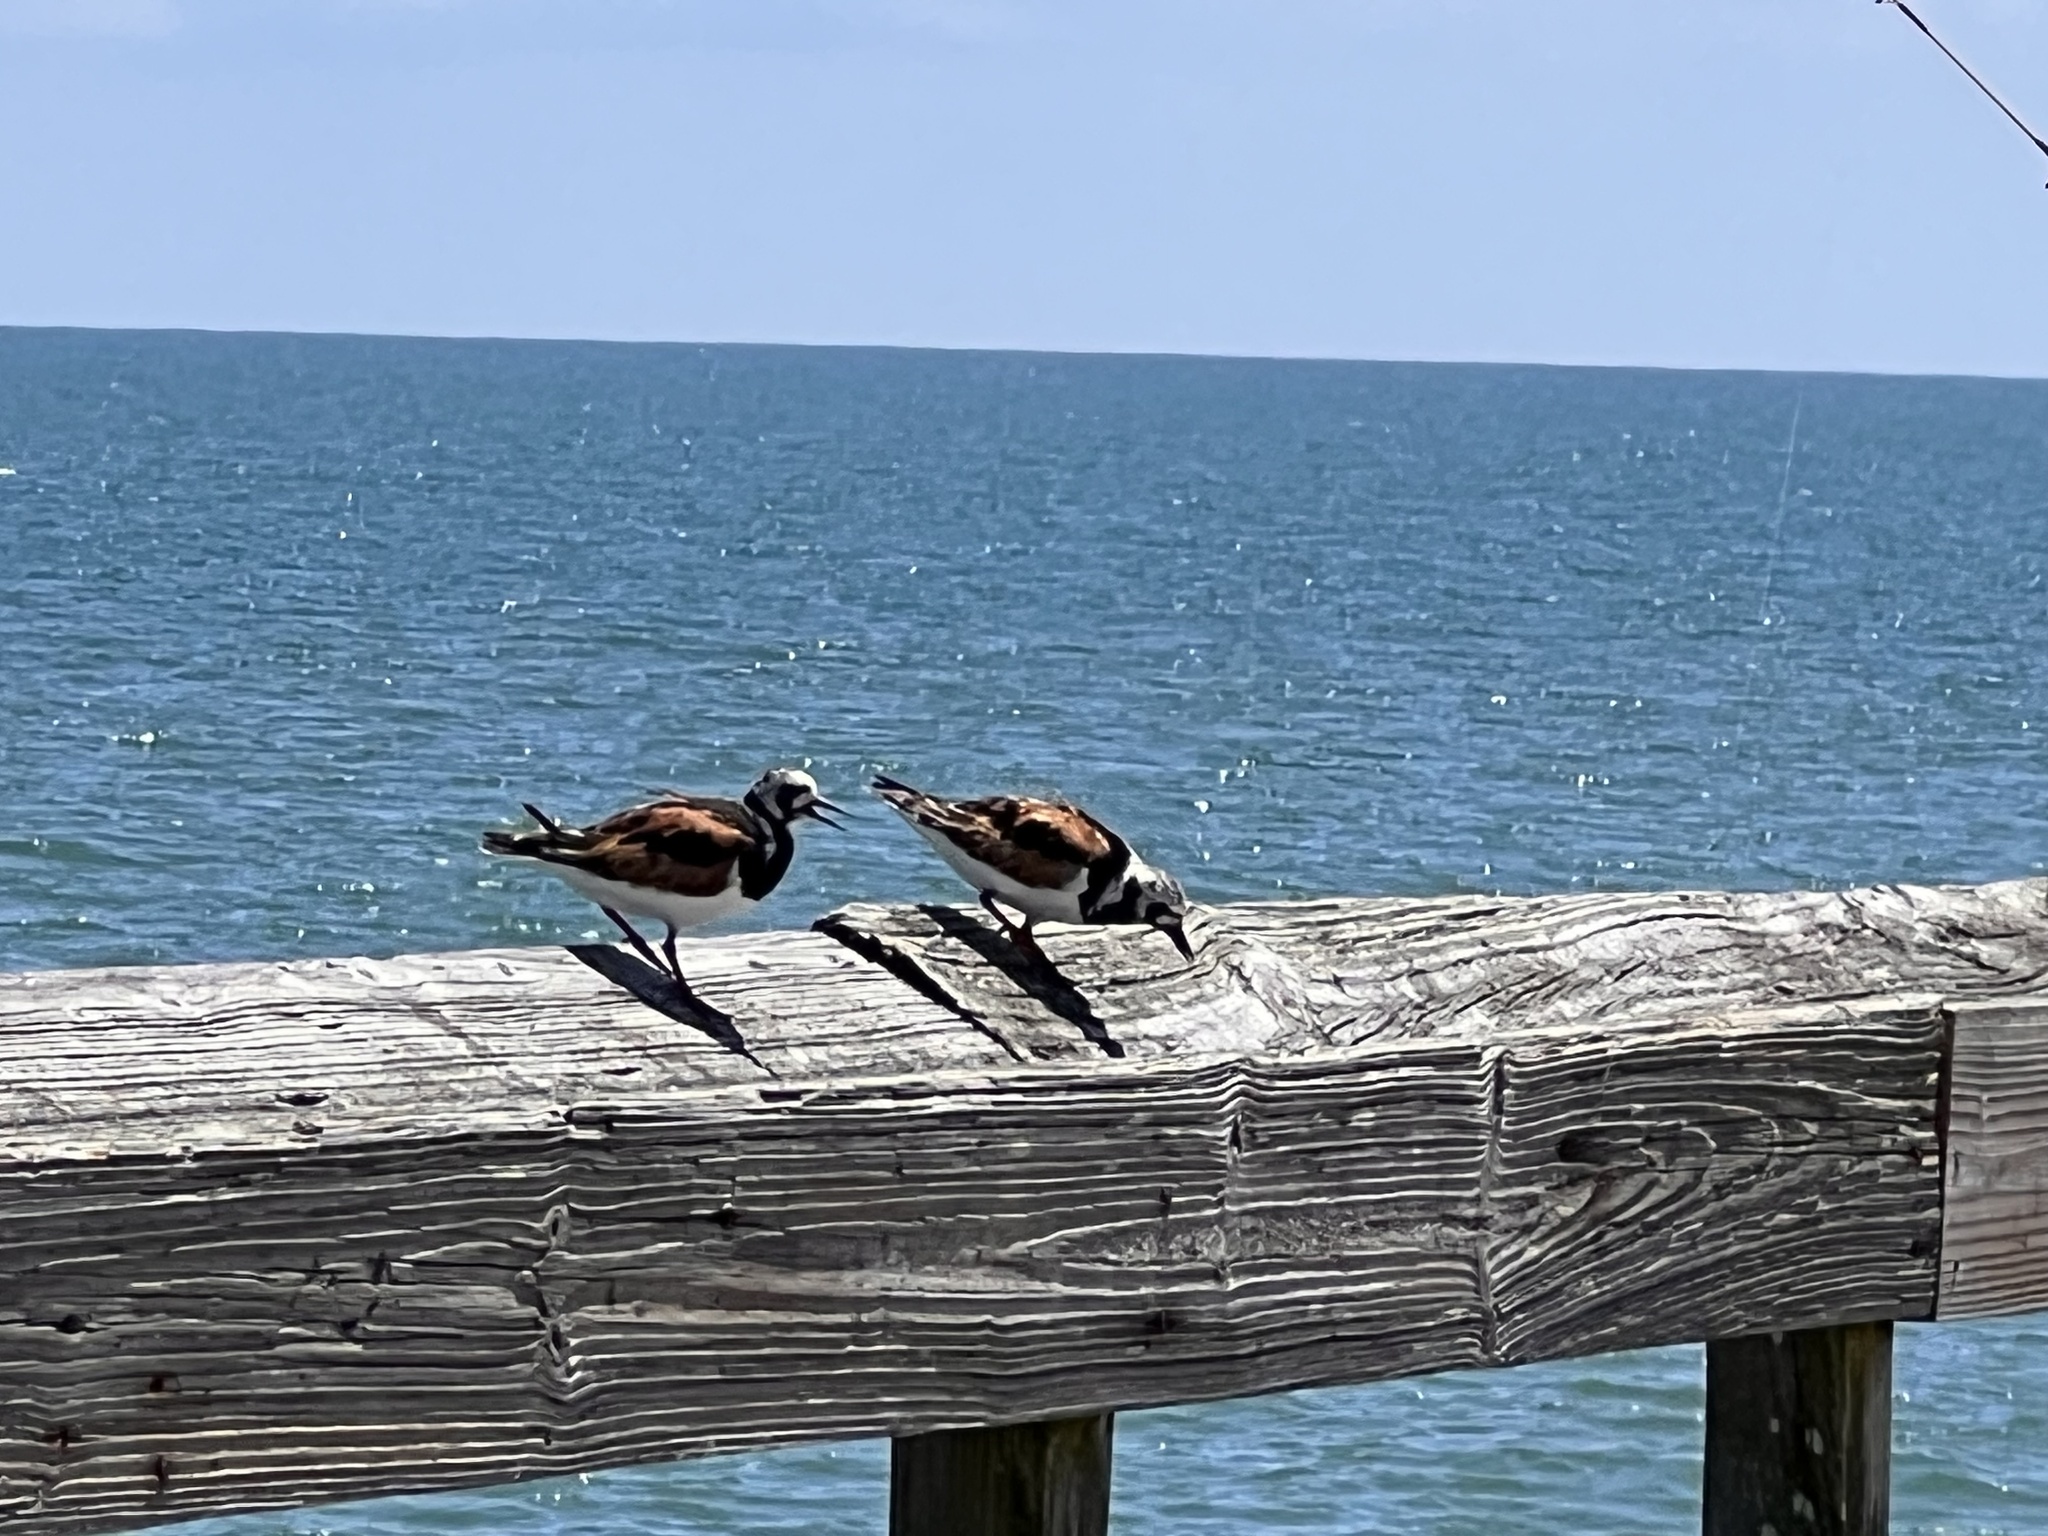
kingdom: Animalia
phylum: Chordata
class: Aves
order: Charadriiformes
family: Scolopacidae
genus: Arenaria
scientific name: Arenaria interpres
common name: Ruddy turnstone
